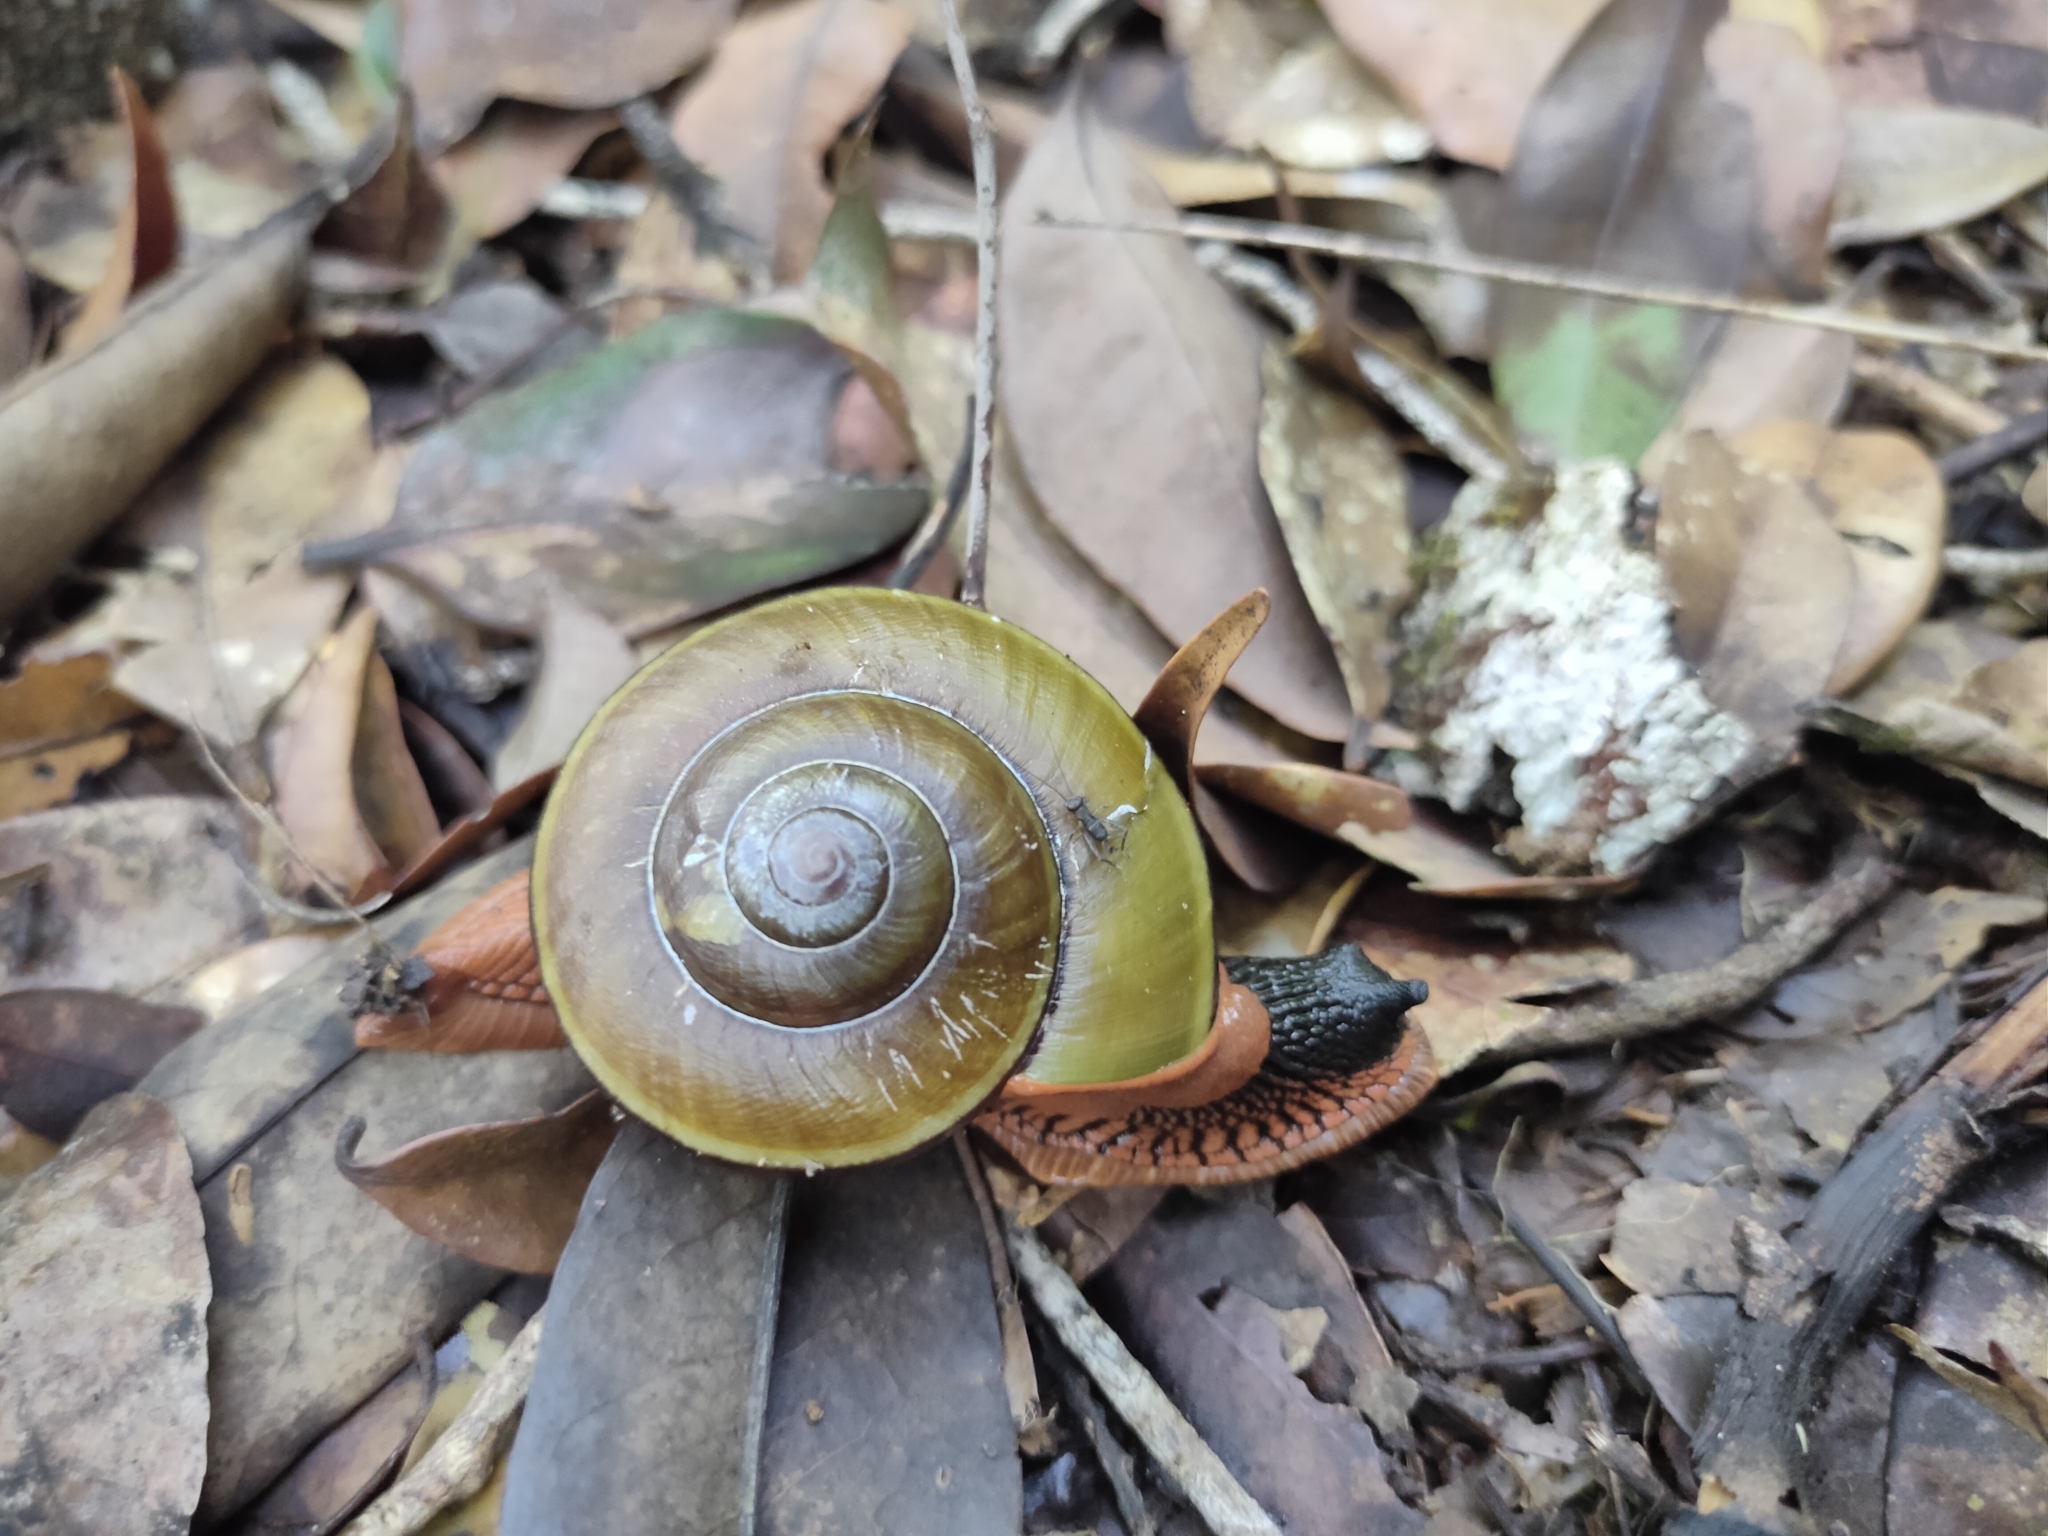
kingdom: Animalia
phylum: Mollusca
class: Gastropoda
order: Stylommatophora
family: Ariophantidae
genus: Hemiplecta
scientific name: Hemiplecta floweri
